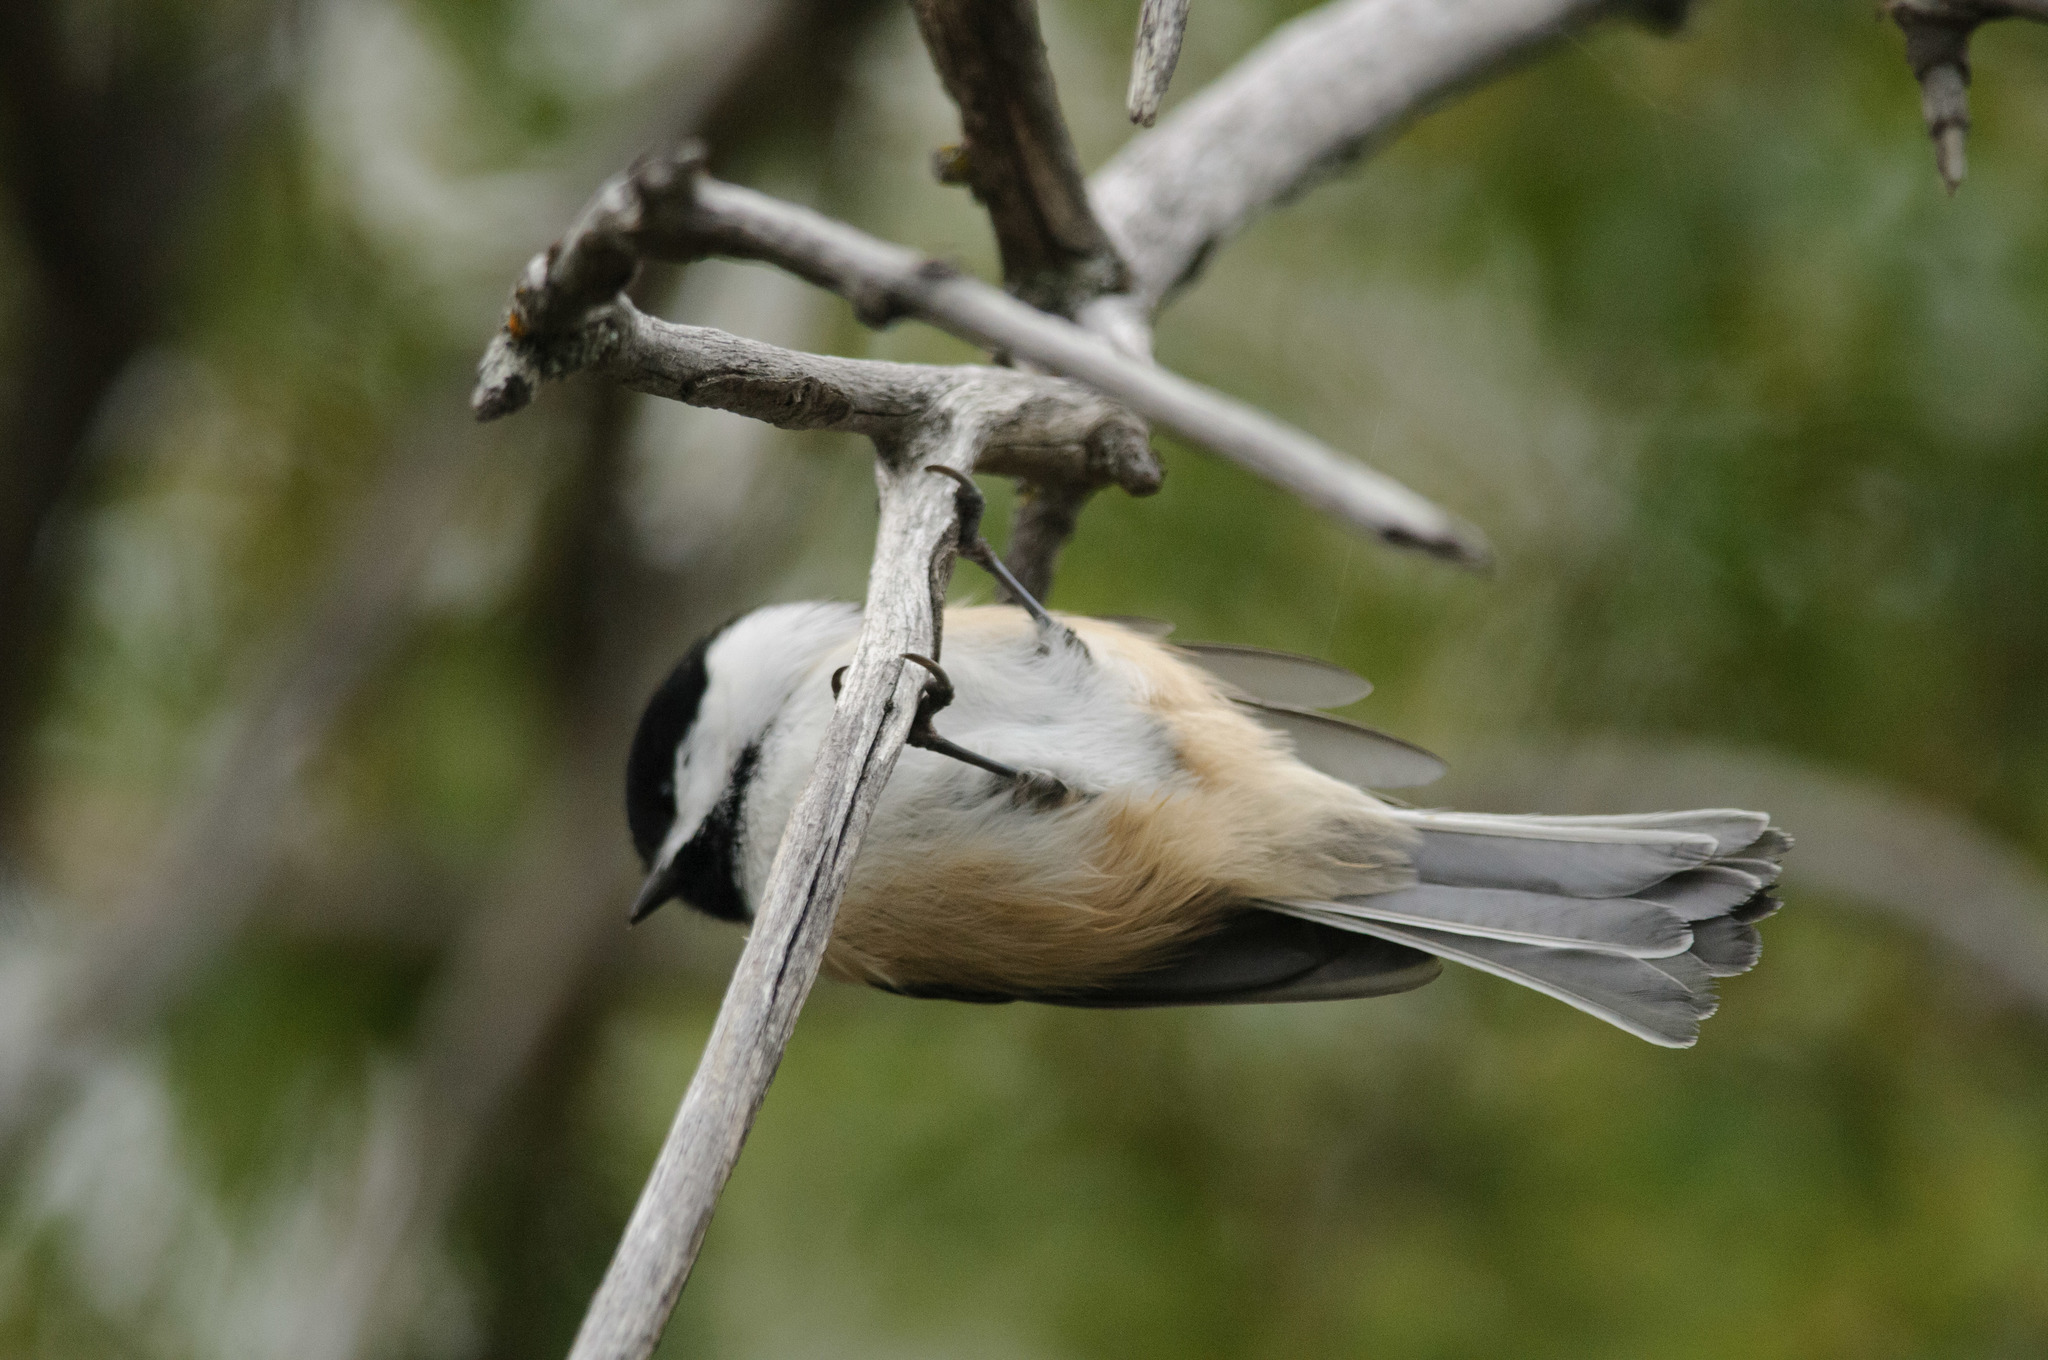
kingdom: Animalia
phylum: Chordata
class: Aves
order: Passeriformes
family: Paridae
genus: Poecile
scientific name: Poecile atricapillus
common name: Black-capped chickadee
